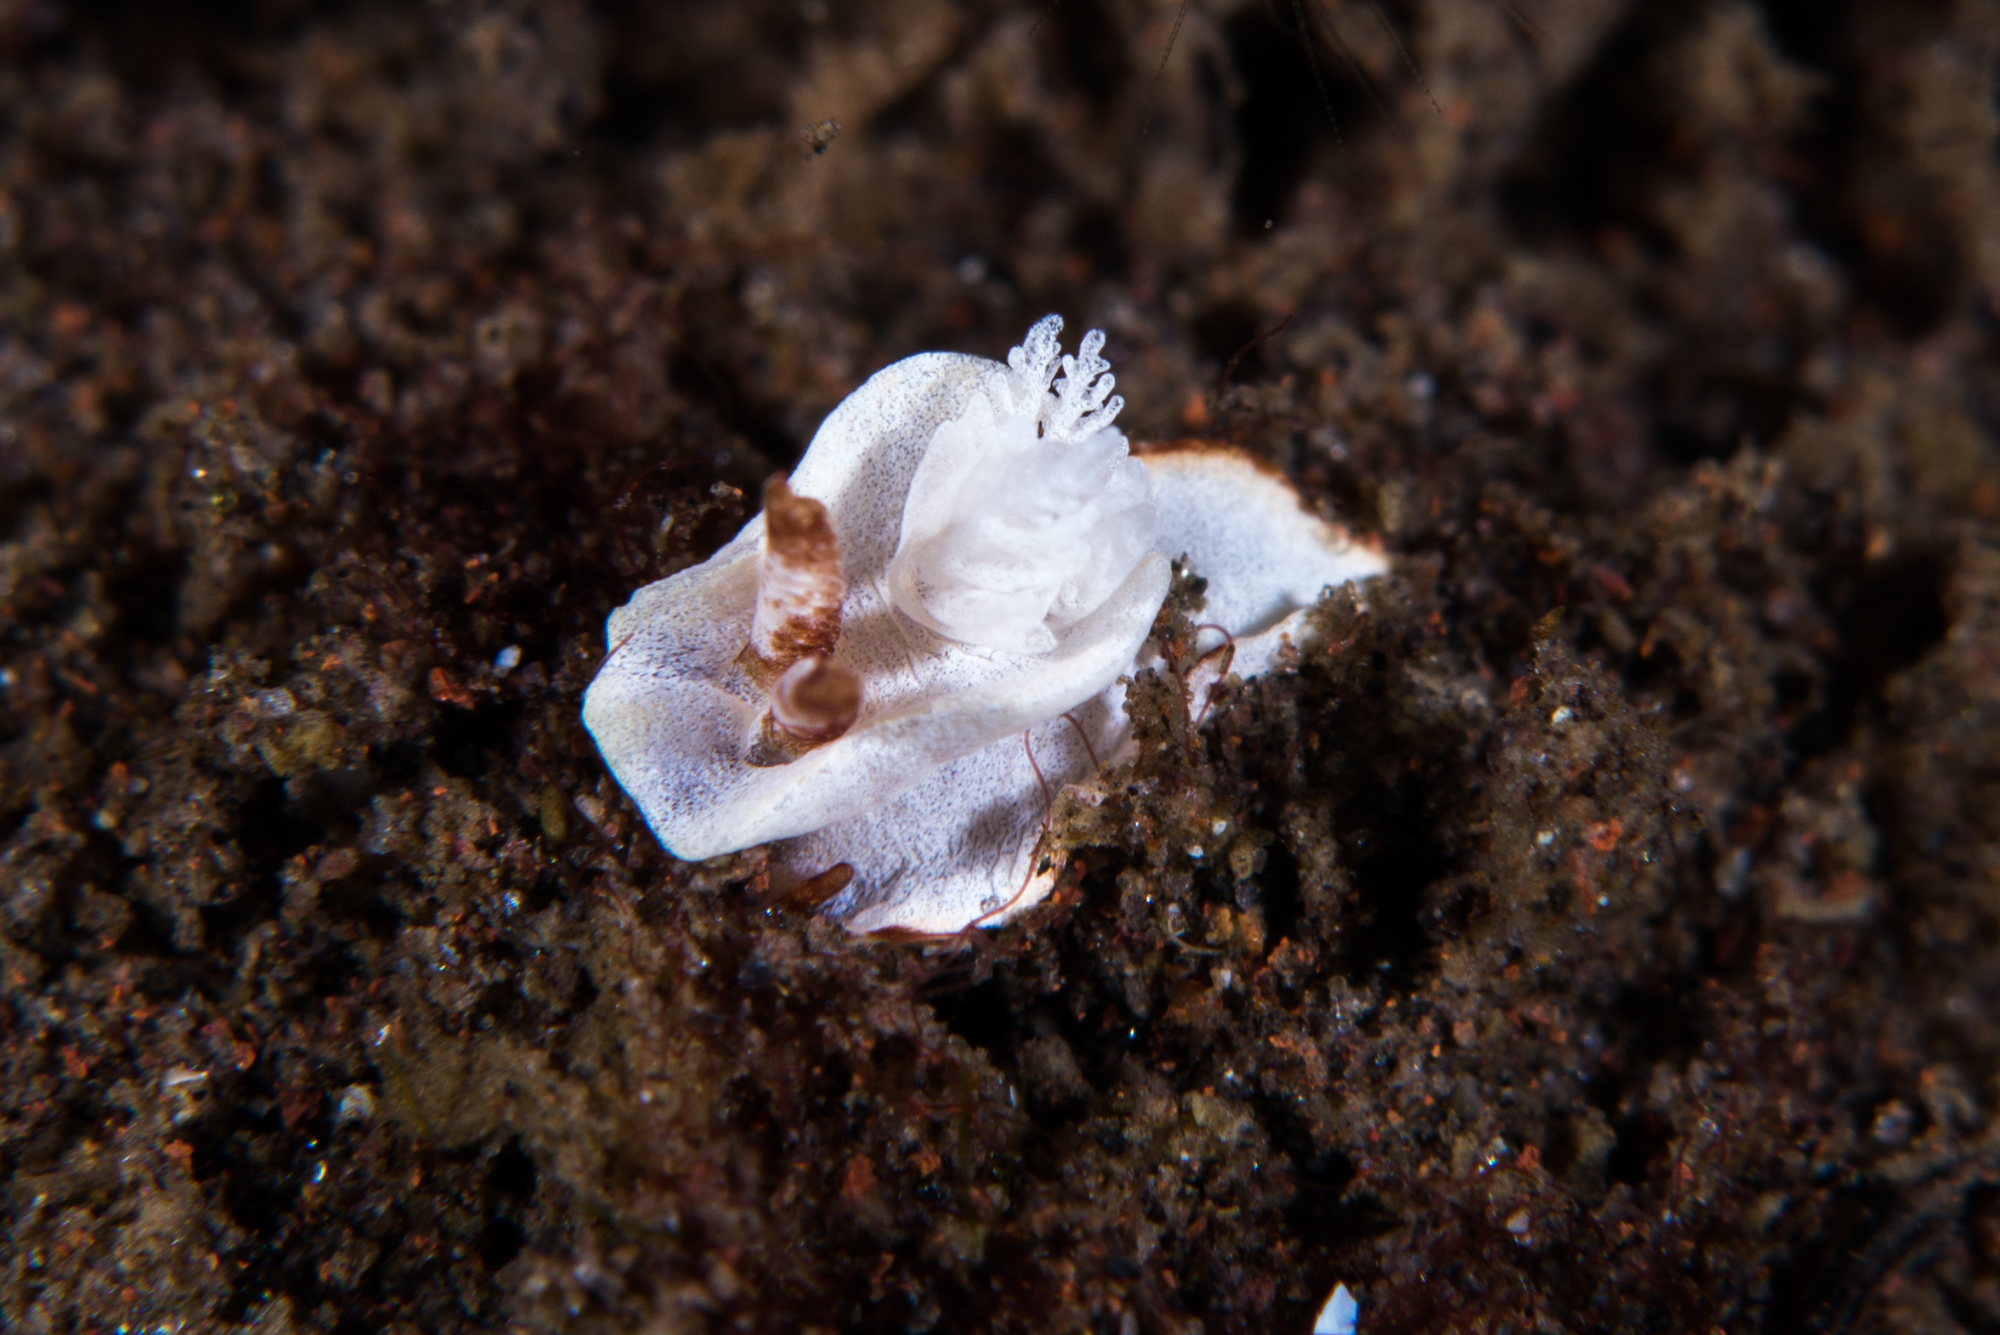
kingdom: Animalia
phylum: Mollusca
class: Gastropoda
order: Nudibranchia
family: Goniodorididae
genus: Pelagella
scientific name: Pelagella longicornis
